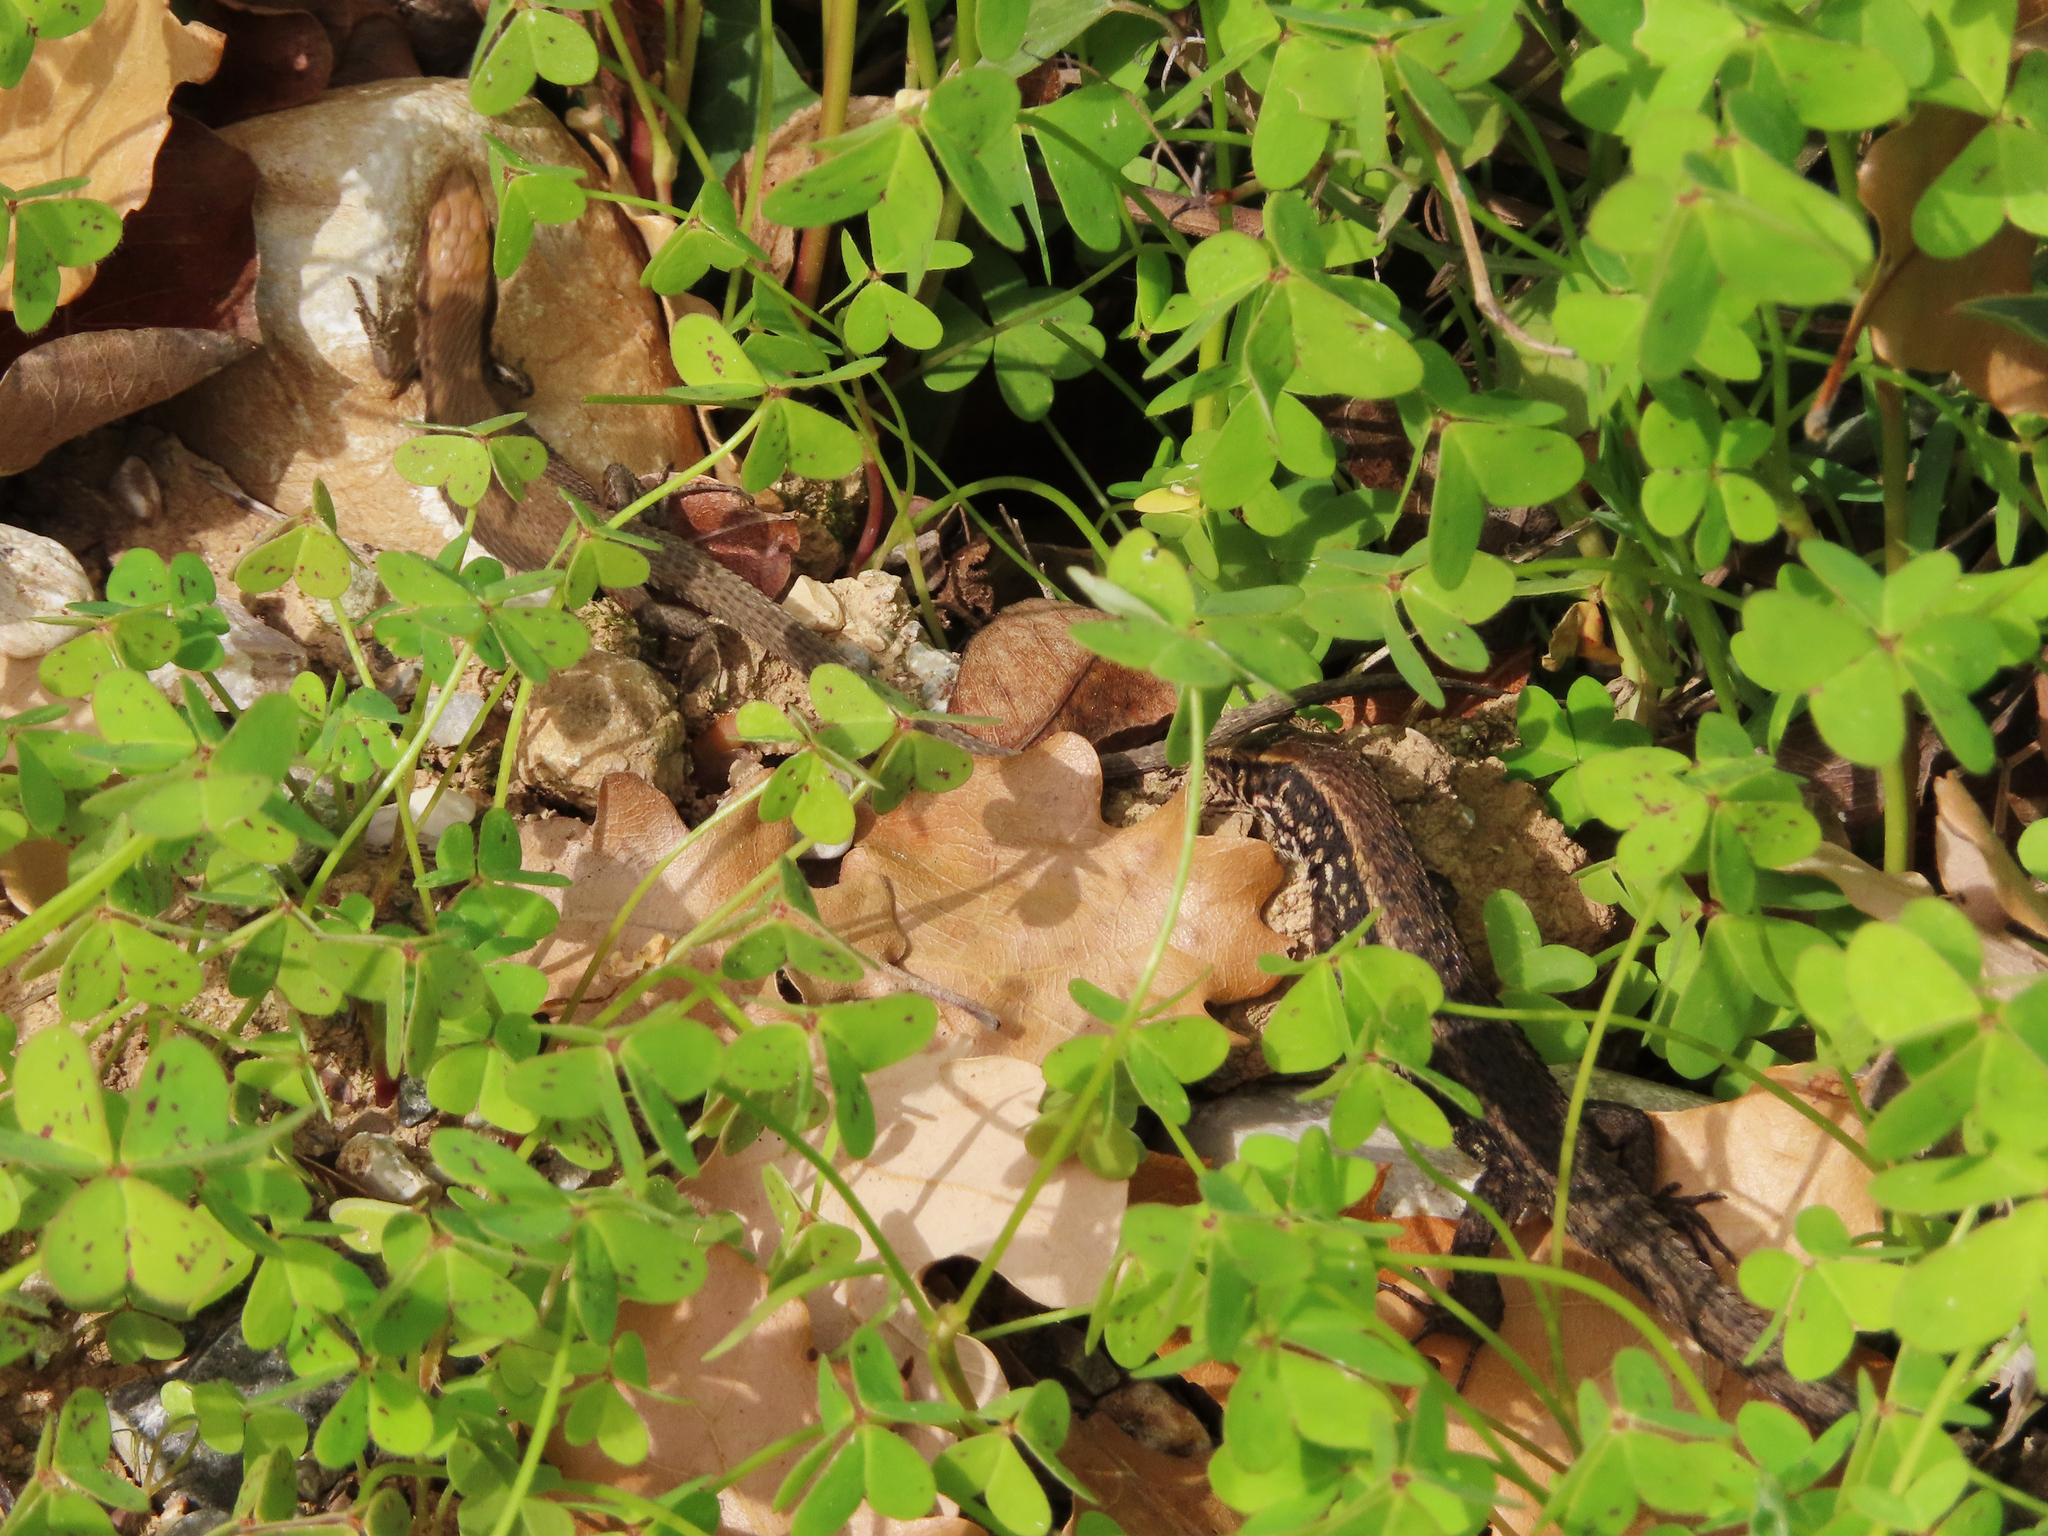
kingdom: Animalia
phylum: Chordata
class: Squamata
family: Lacertidae
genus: Algyroides
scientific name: Algyroides moreoticus
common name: Greek algyroides
